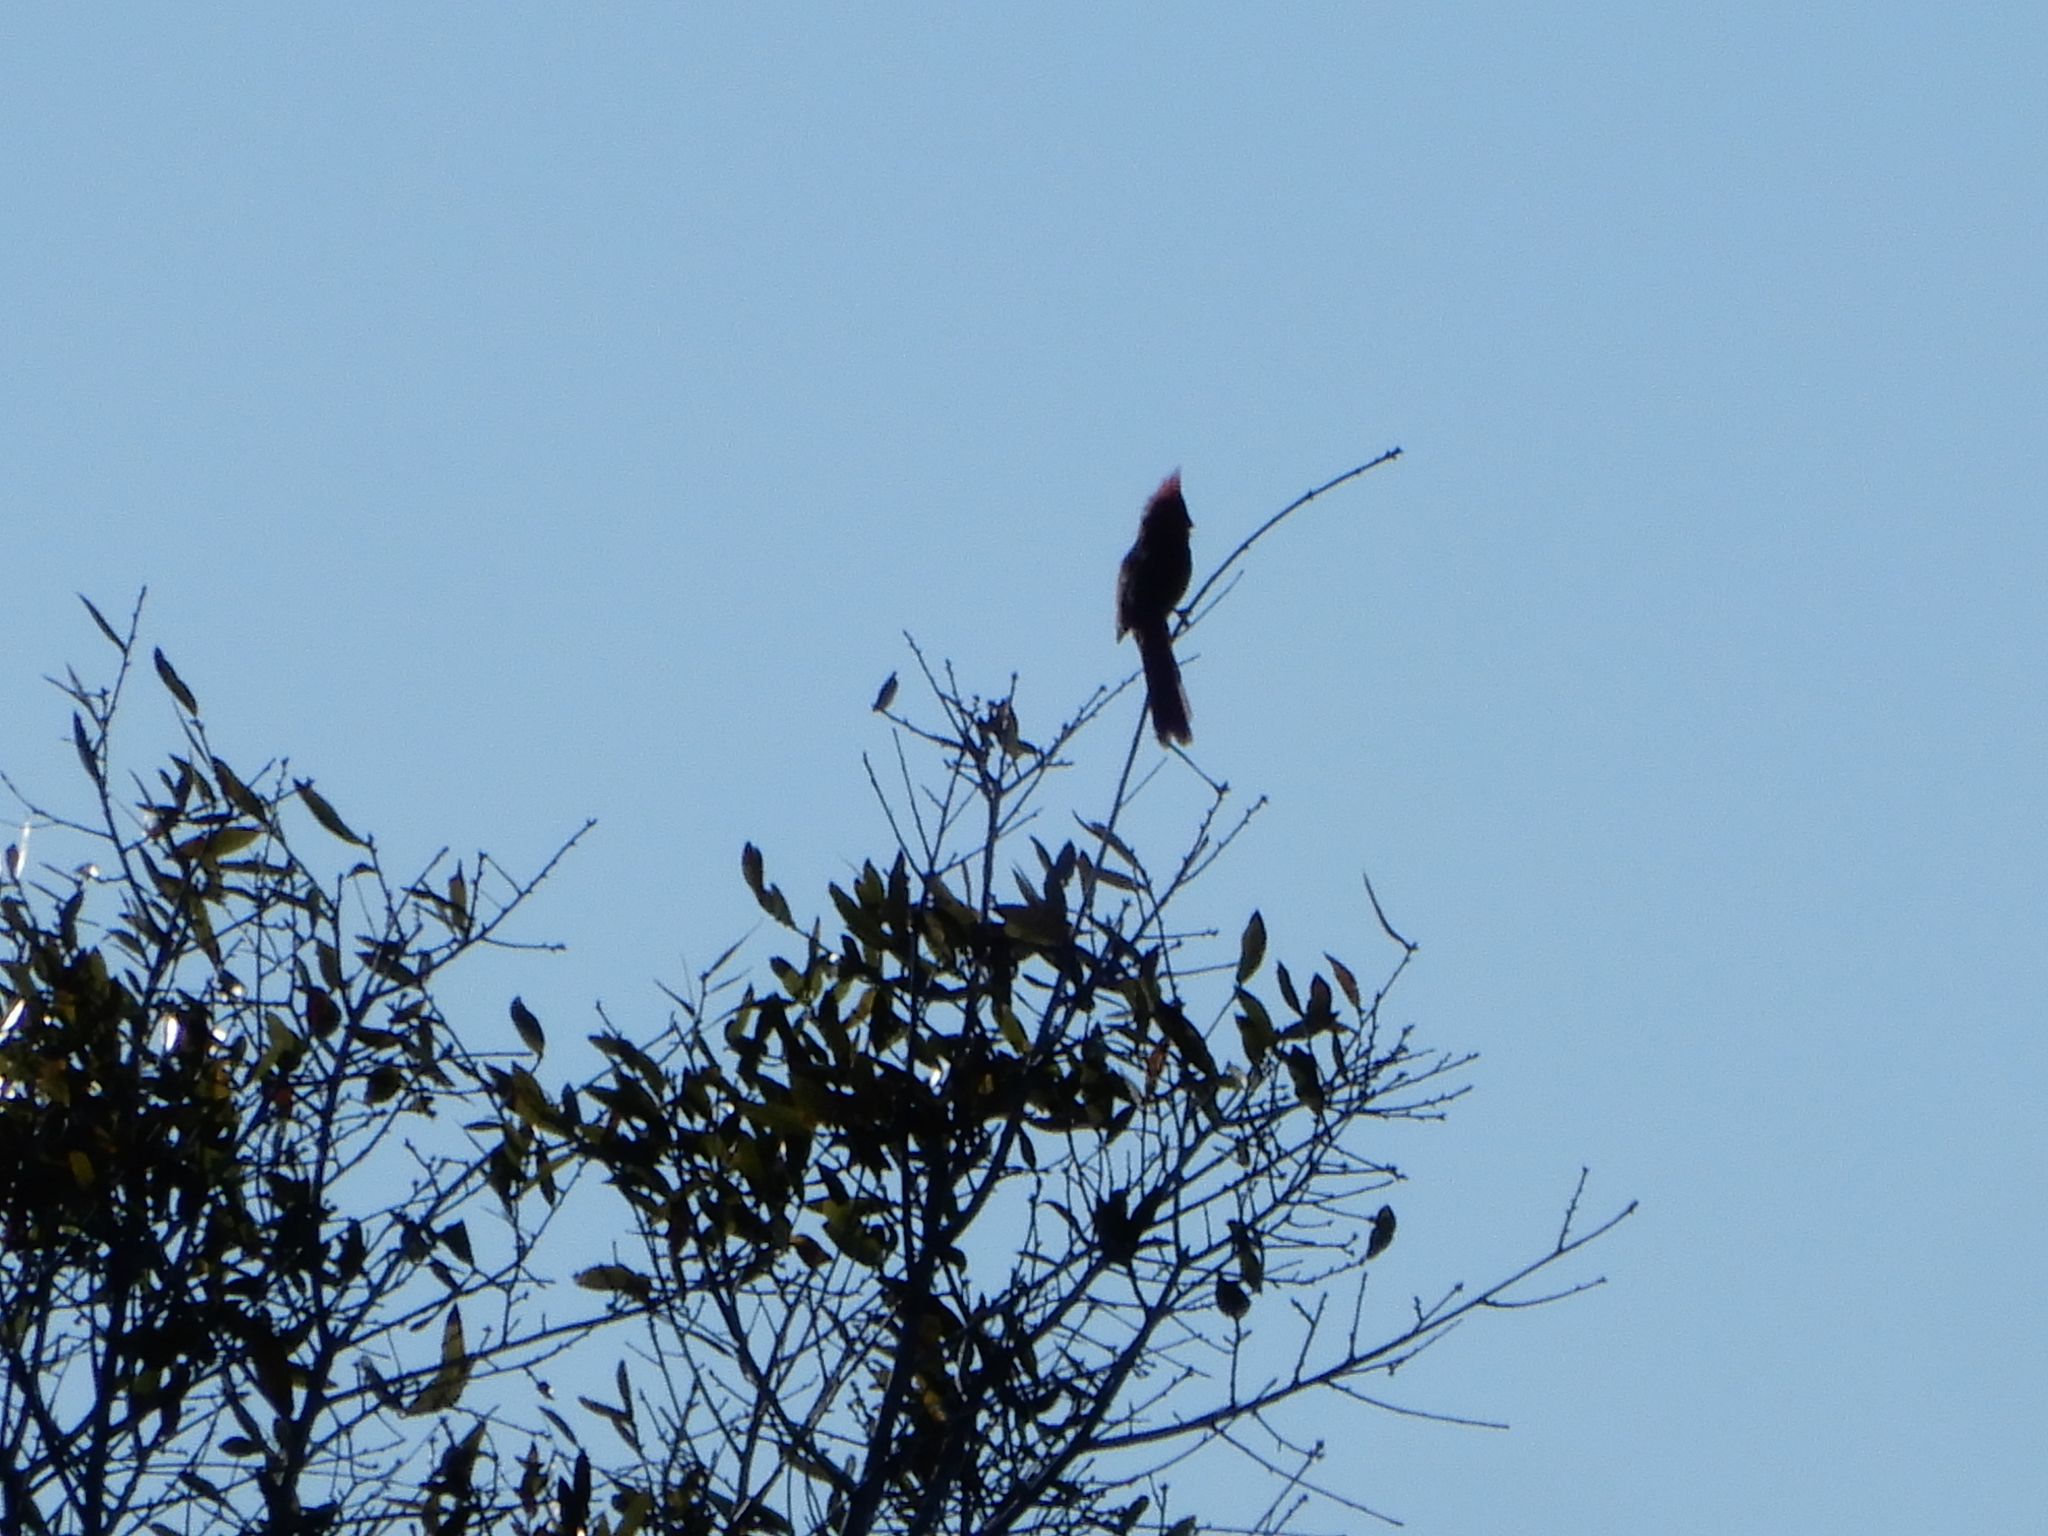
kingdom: Animalia
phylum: Chordata
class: Aves
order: Passeriformes
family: Cardinalidae
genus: Cardinalis
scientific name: Cardinalis cardinalis
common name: Northern cardinal
